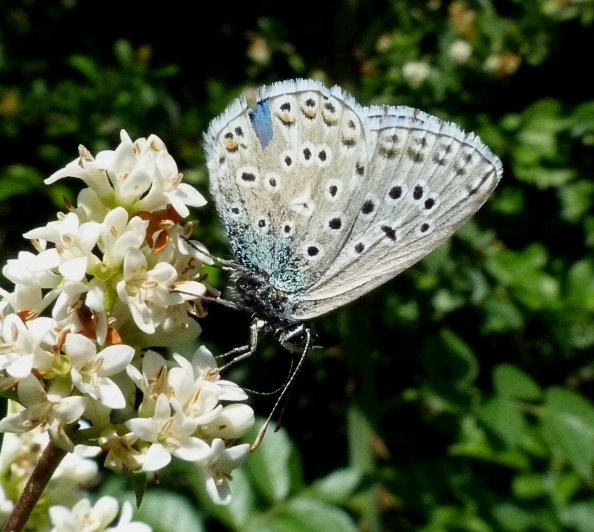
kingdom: Animalia
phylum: Arthropoda
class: Insecta
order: Lepidoptera
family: Lycaenidae
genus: Lysandra
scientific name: Lysandra bellargus
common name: Adonis blue
